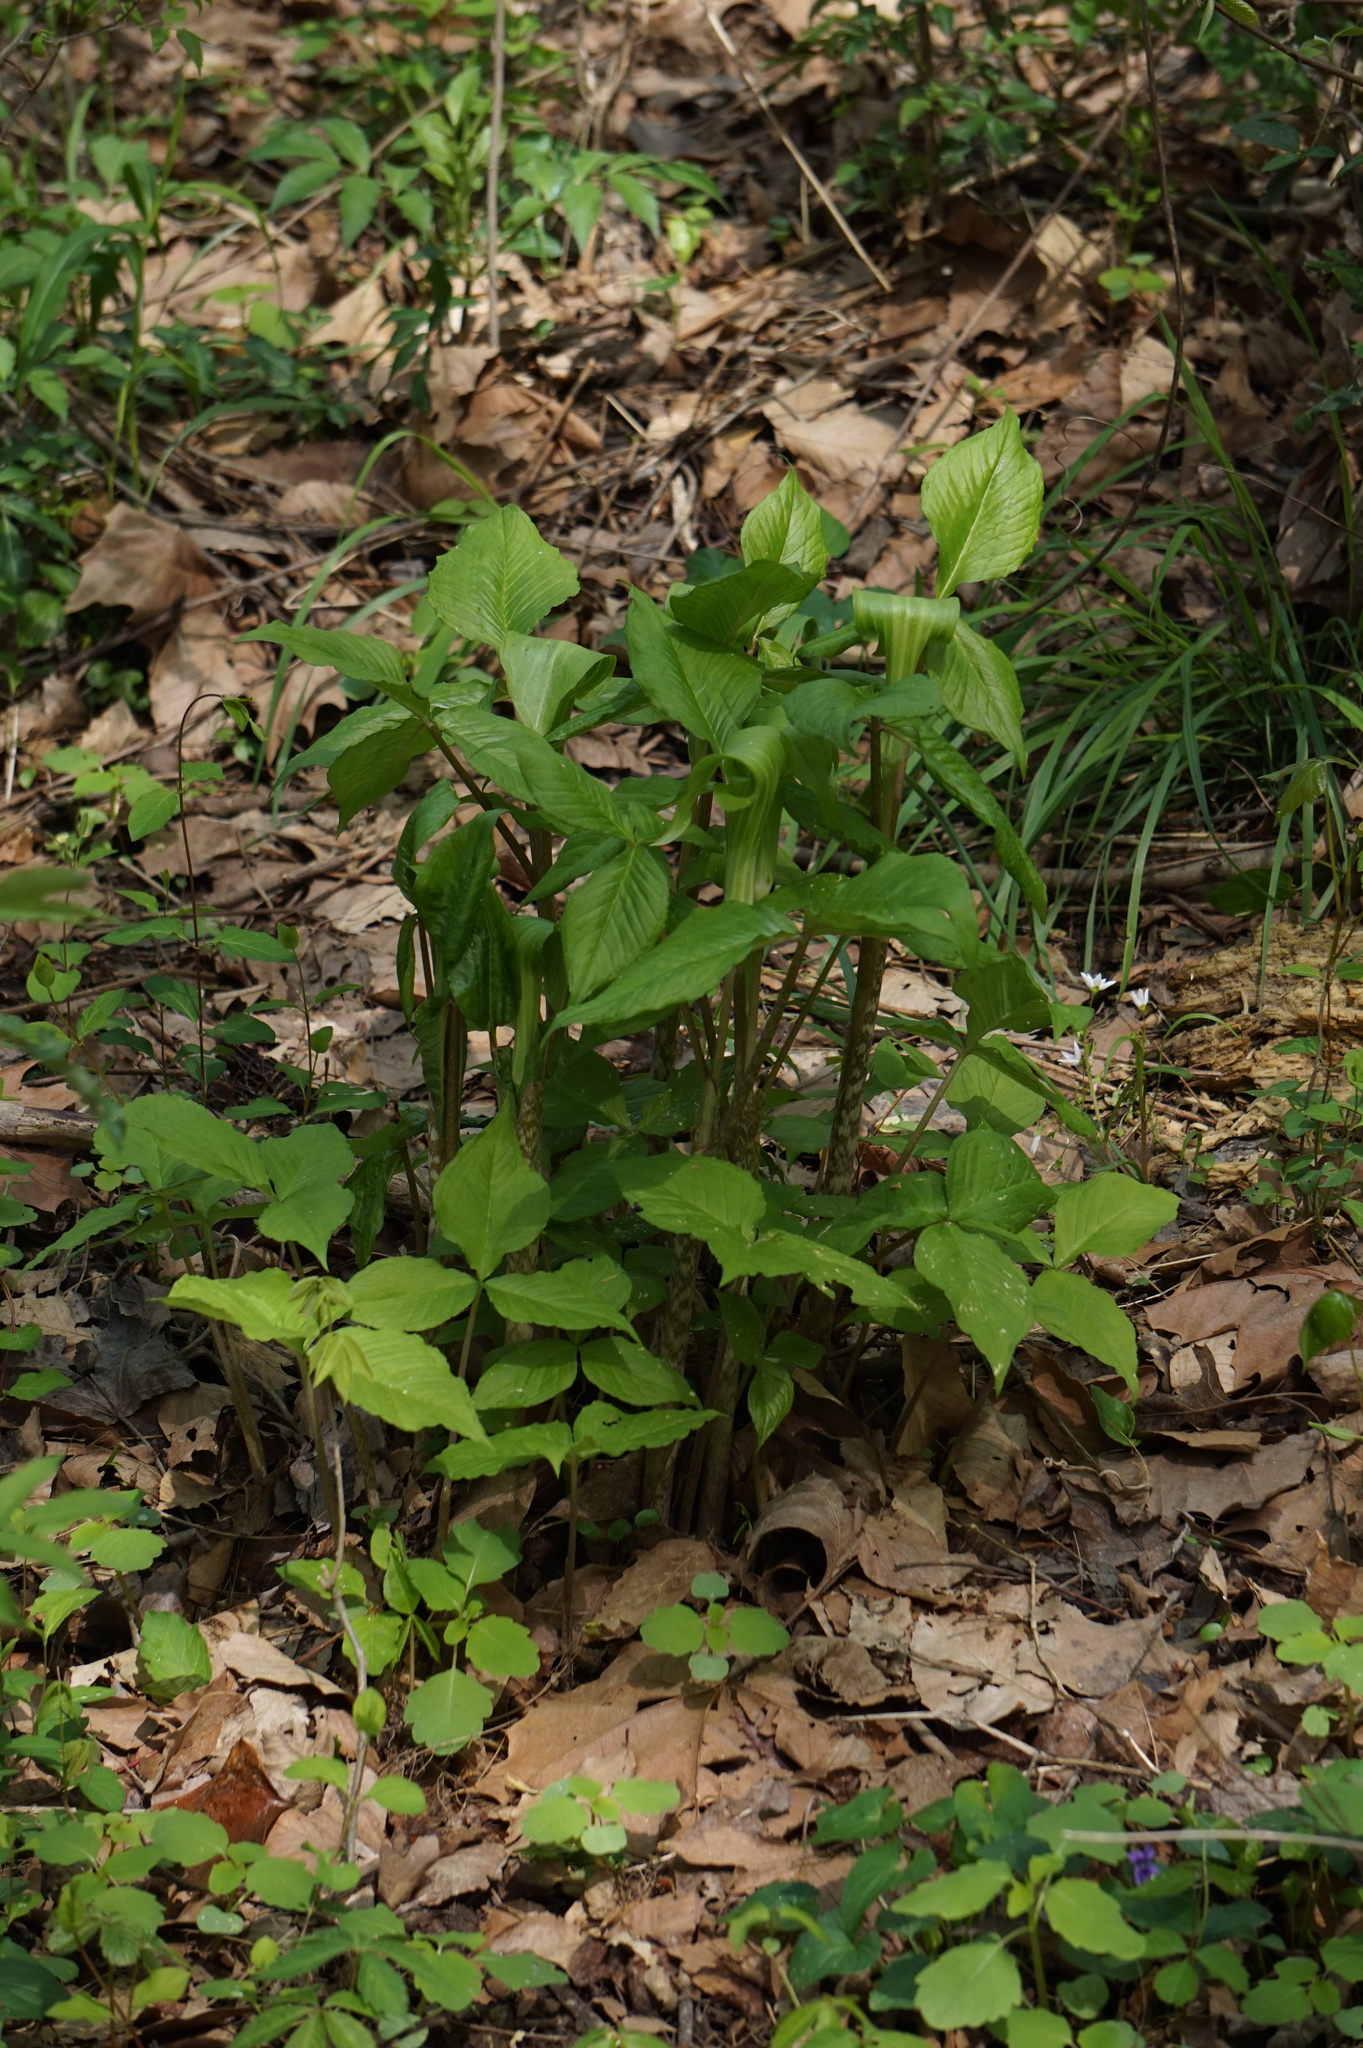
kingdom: Plantae
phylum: Tracheophyta
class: Liliopsida
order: Alismatales
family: Araceae
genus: Arisaema
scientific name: Arisaema triphyllum
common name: Jack-in-the-pulpit
